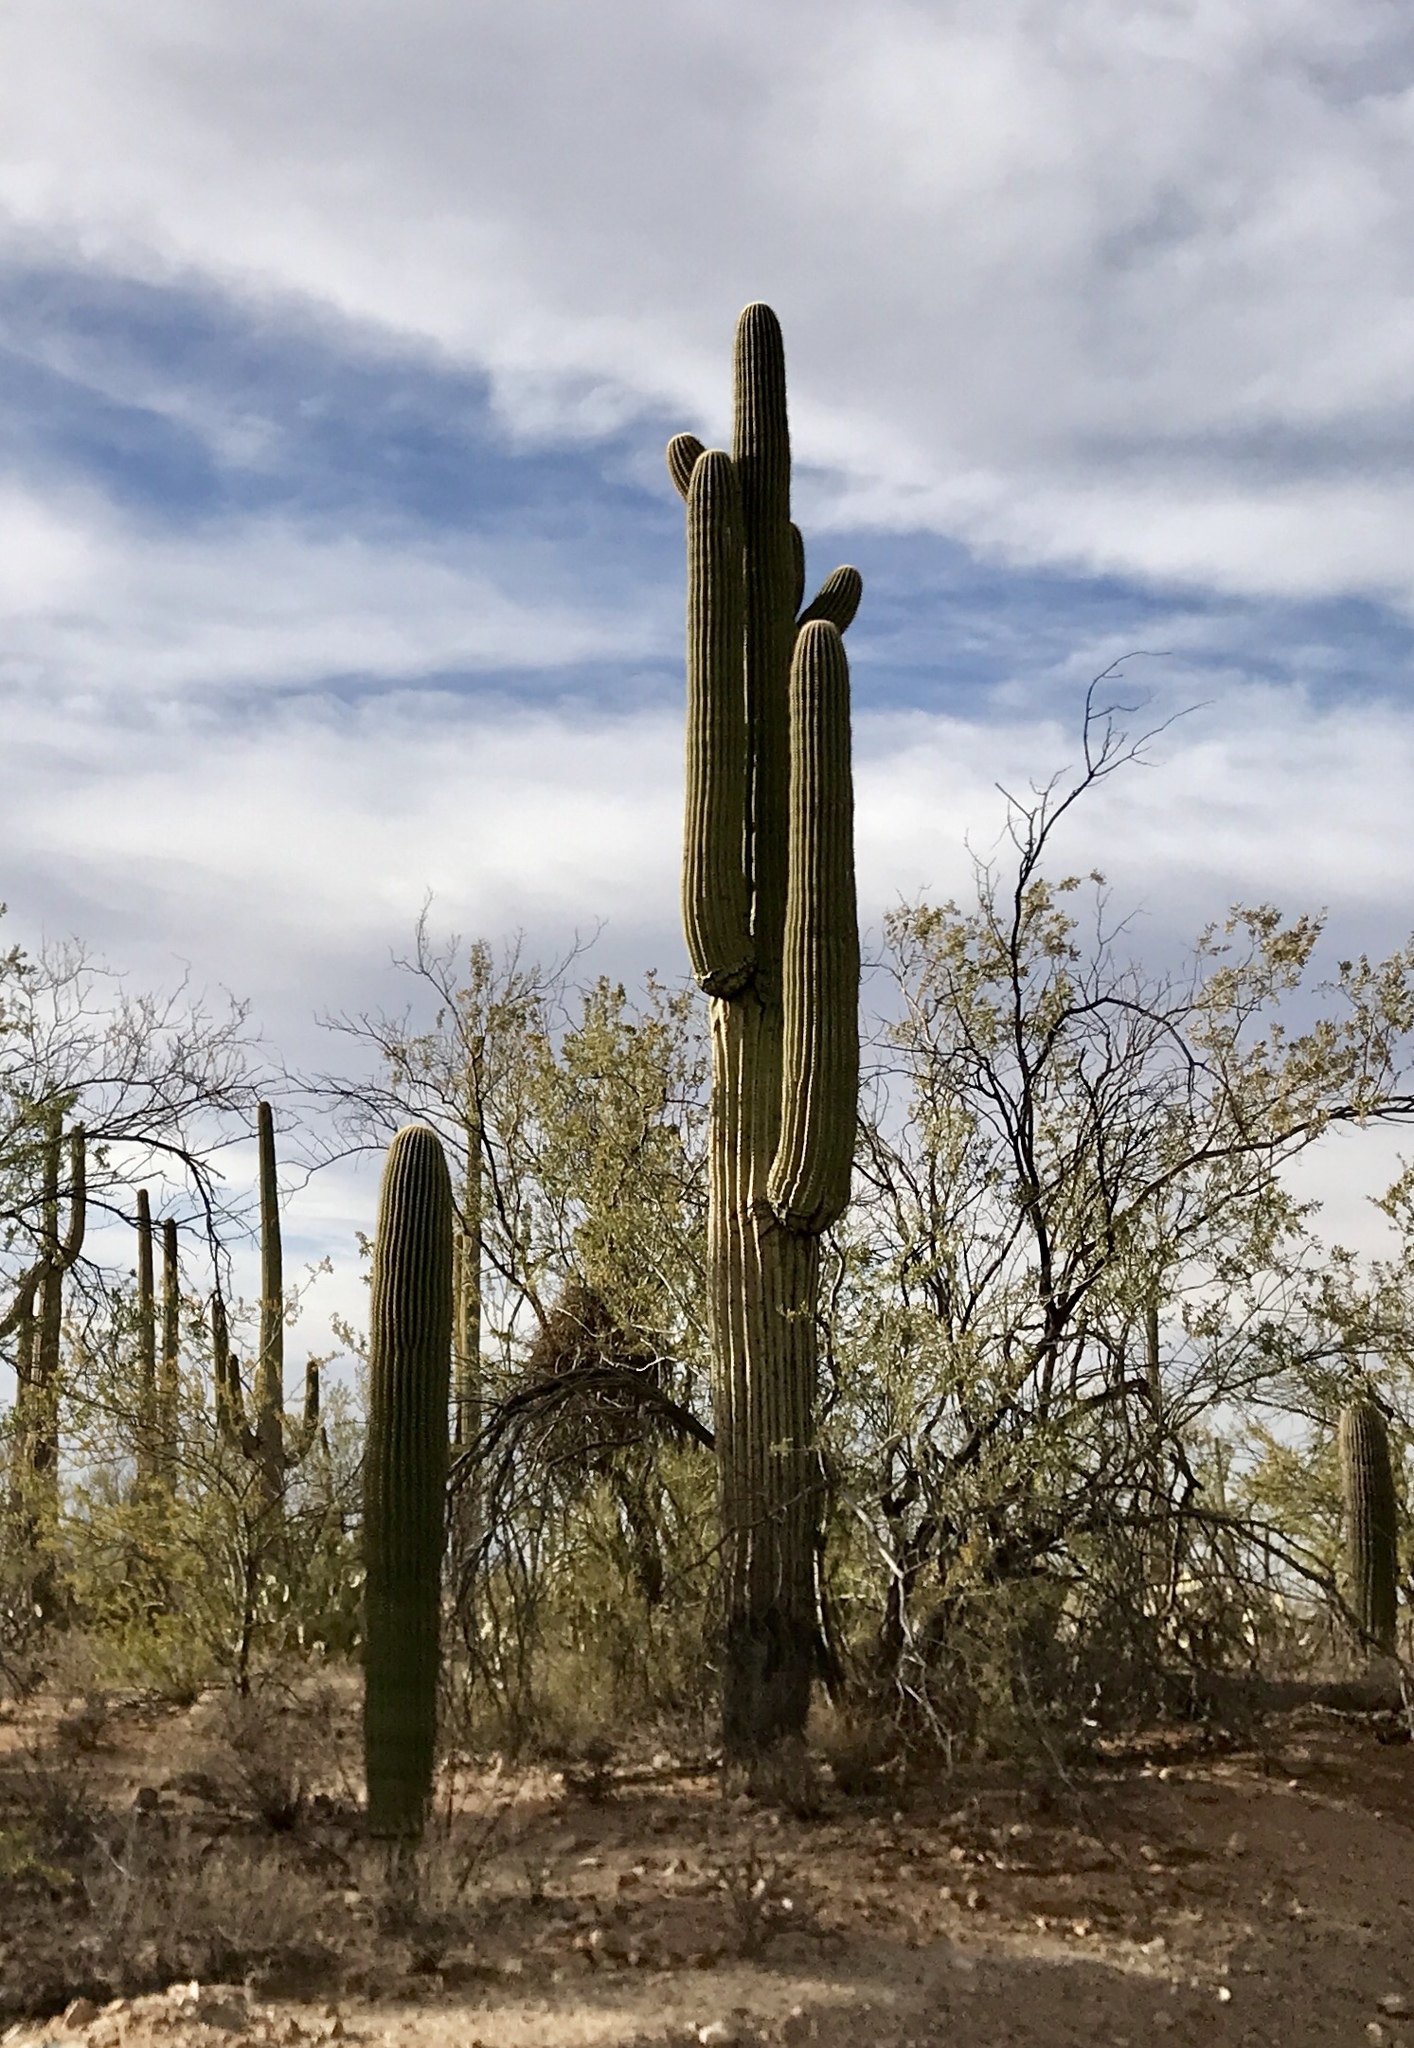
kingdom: Plantae
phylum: Tracheophyta
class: Magnoliopsida
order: Caryophyllales
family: Cactaceae
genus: Carnegiea
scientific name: Carnegiea gigantea
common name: Saguaro
